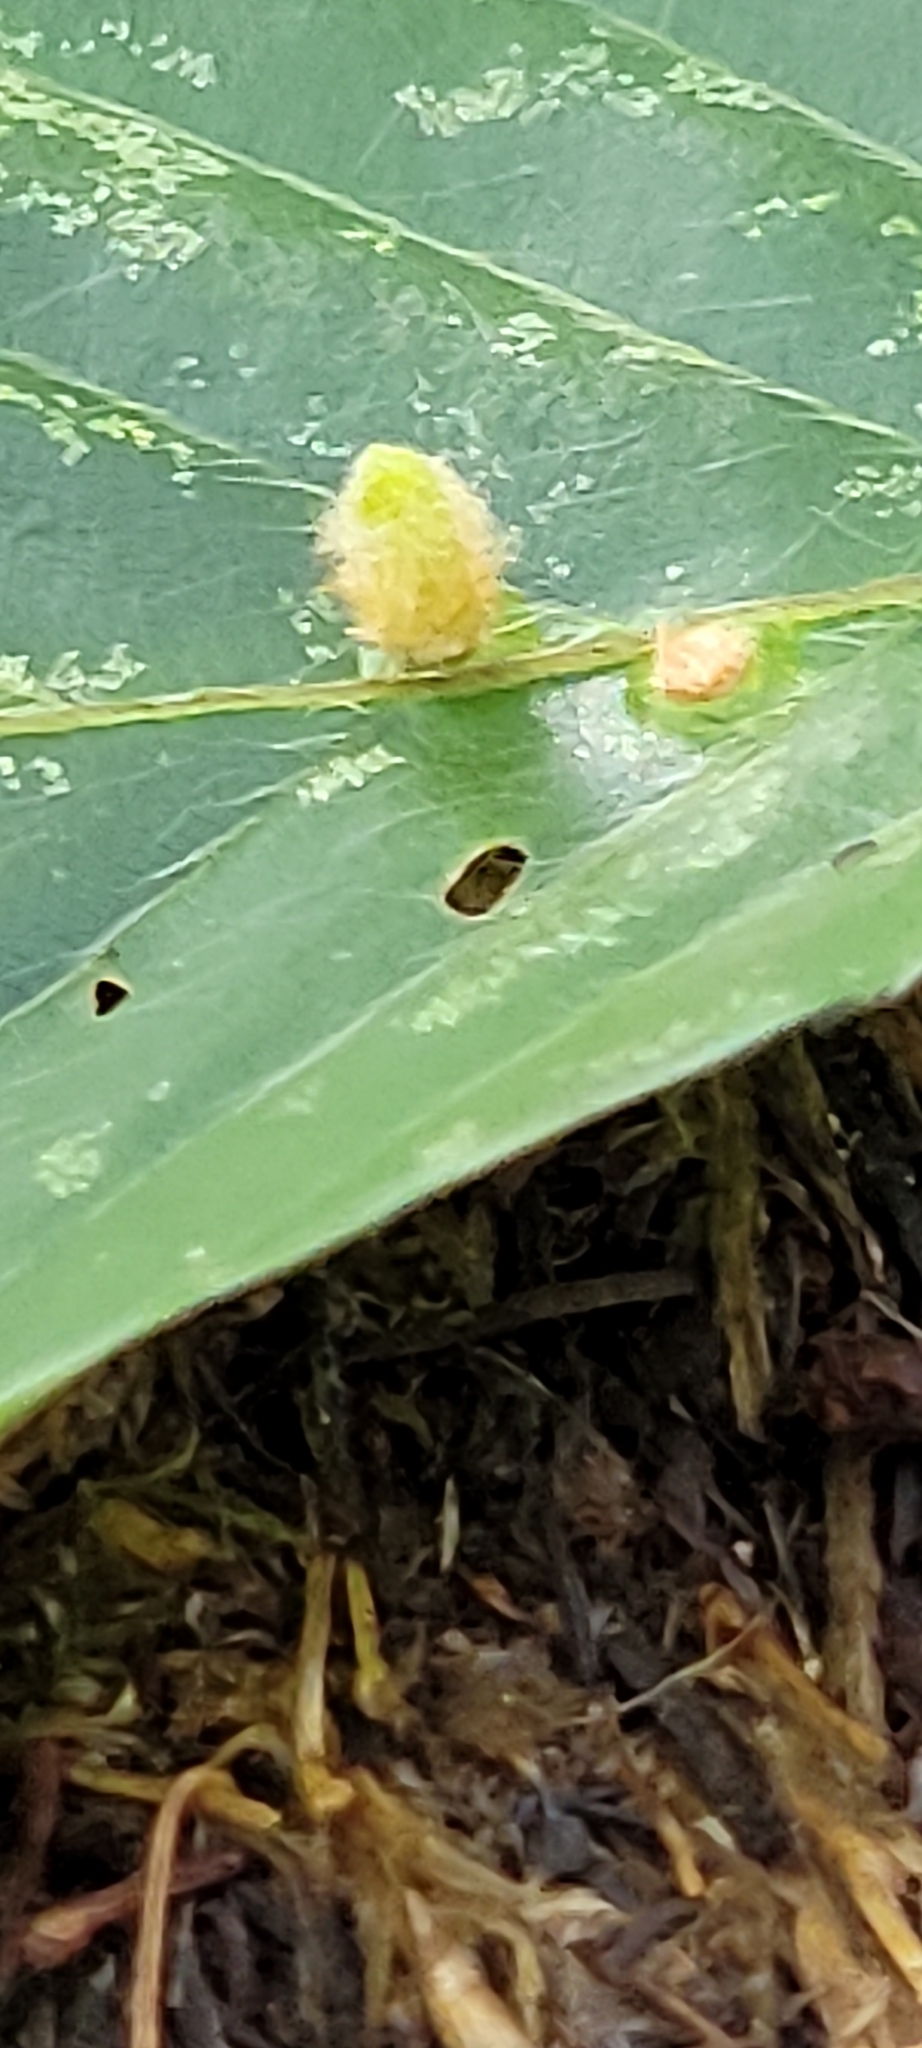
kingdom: Animalia
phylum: Arthropoda
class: Insecta
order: Diptera
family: Cecidomyiidae
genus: Hartigiola
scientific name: Hartigiola annulipes
